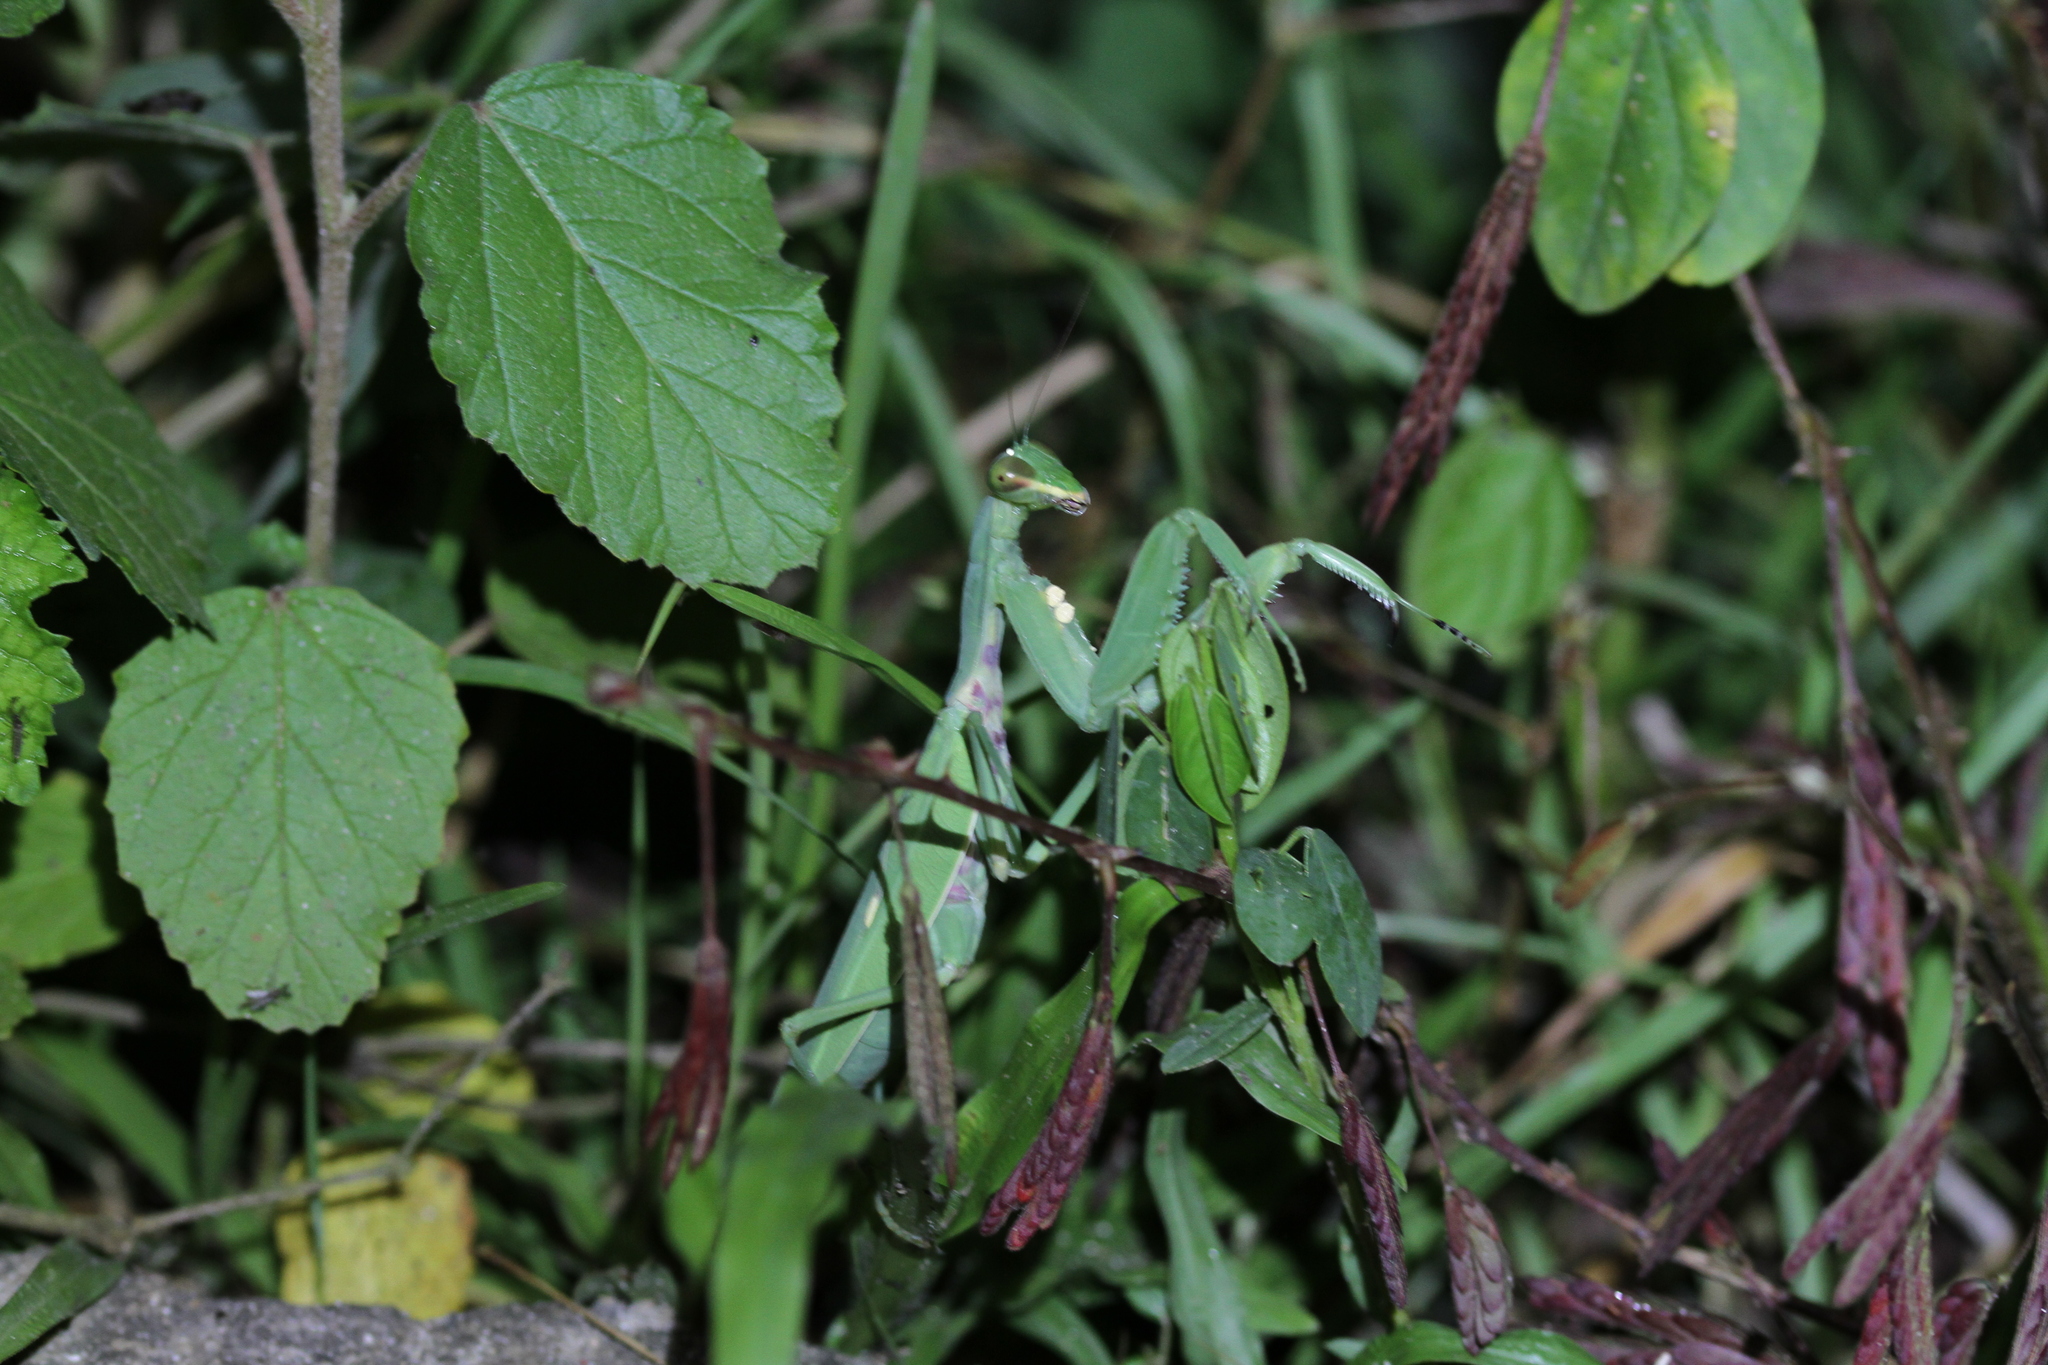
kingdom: Animalia
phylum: Arthropoda
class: Insecta
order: Mantodea
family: Mantidae
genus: Hierodula
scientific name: Hierodula patellifera
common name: Asian mantis
